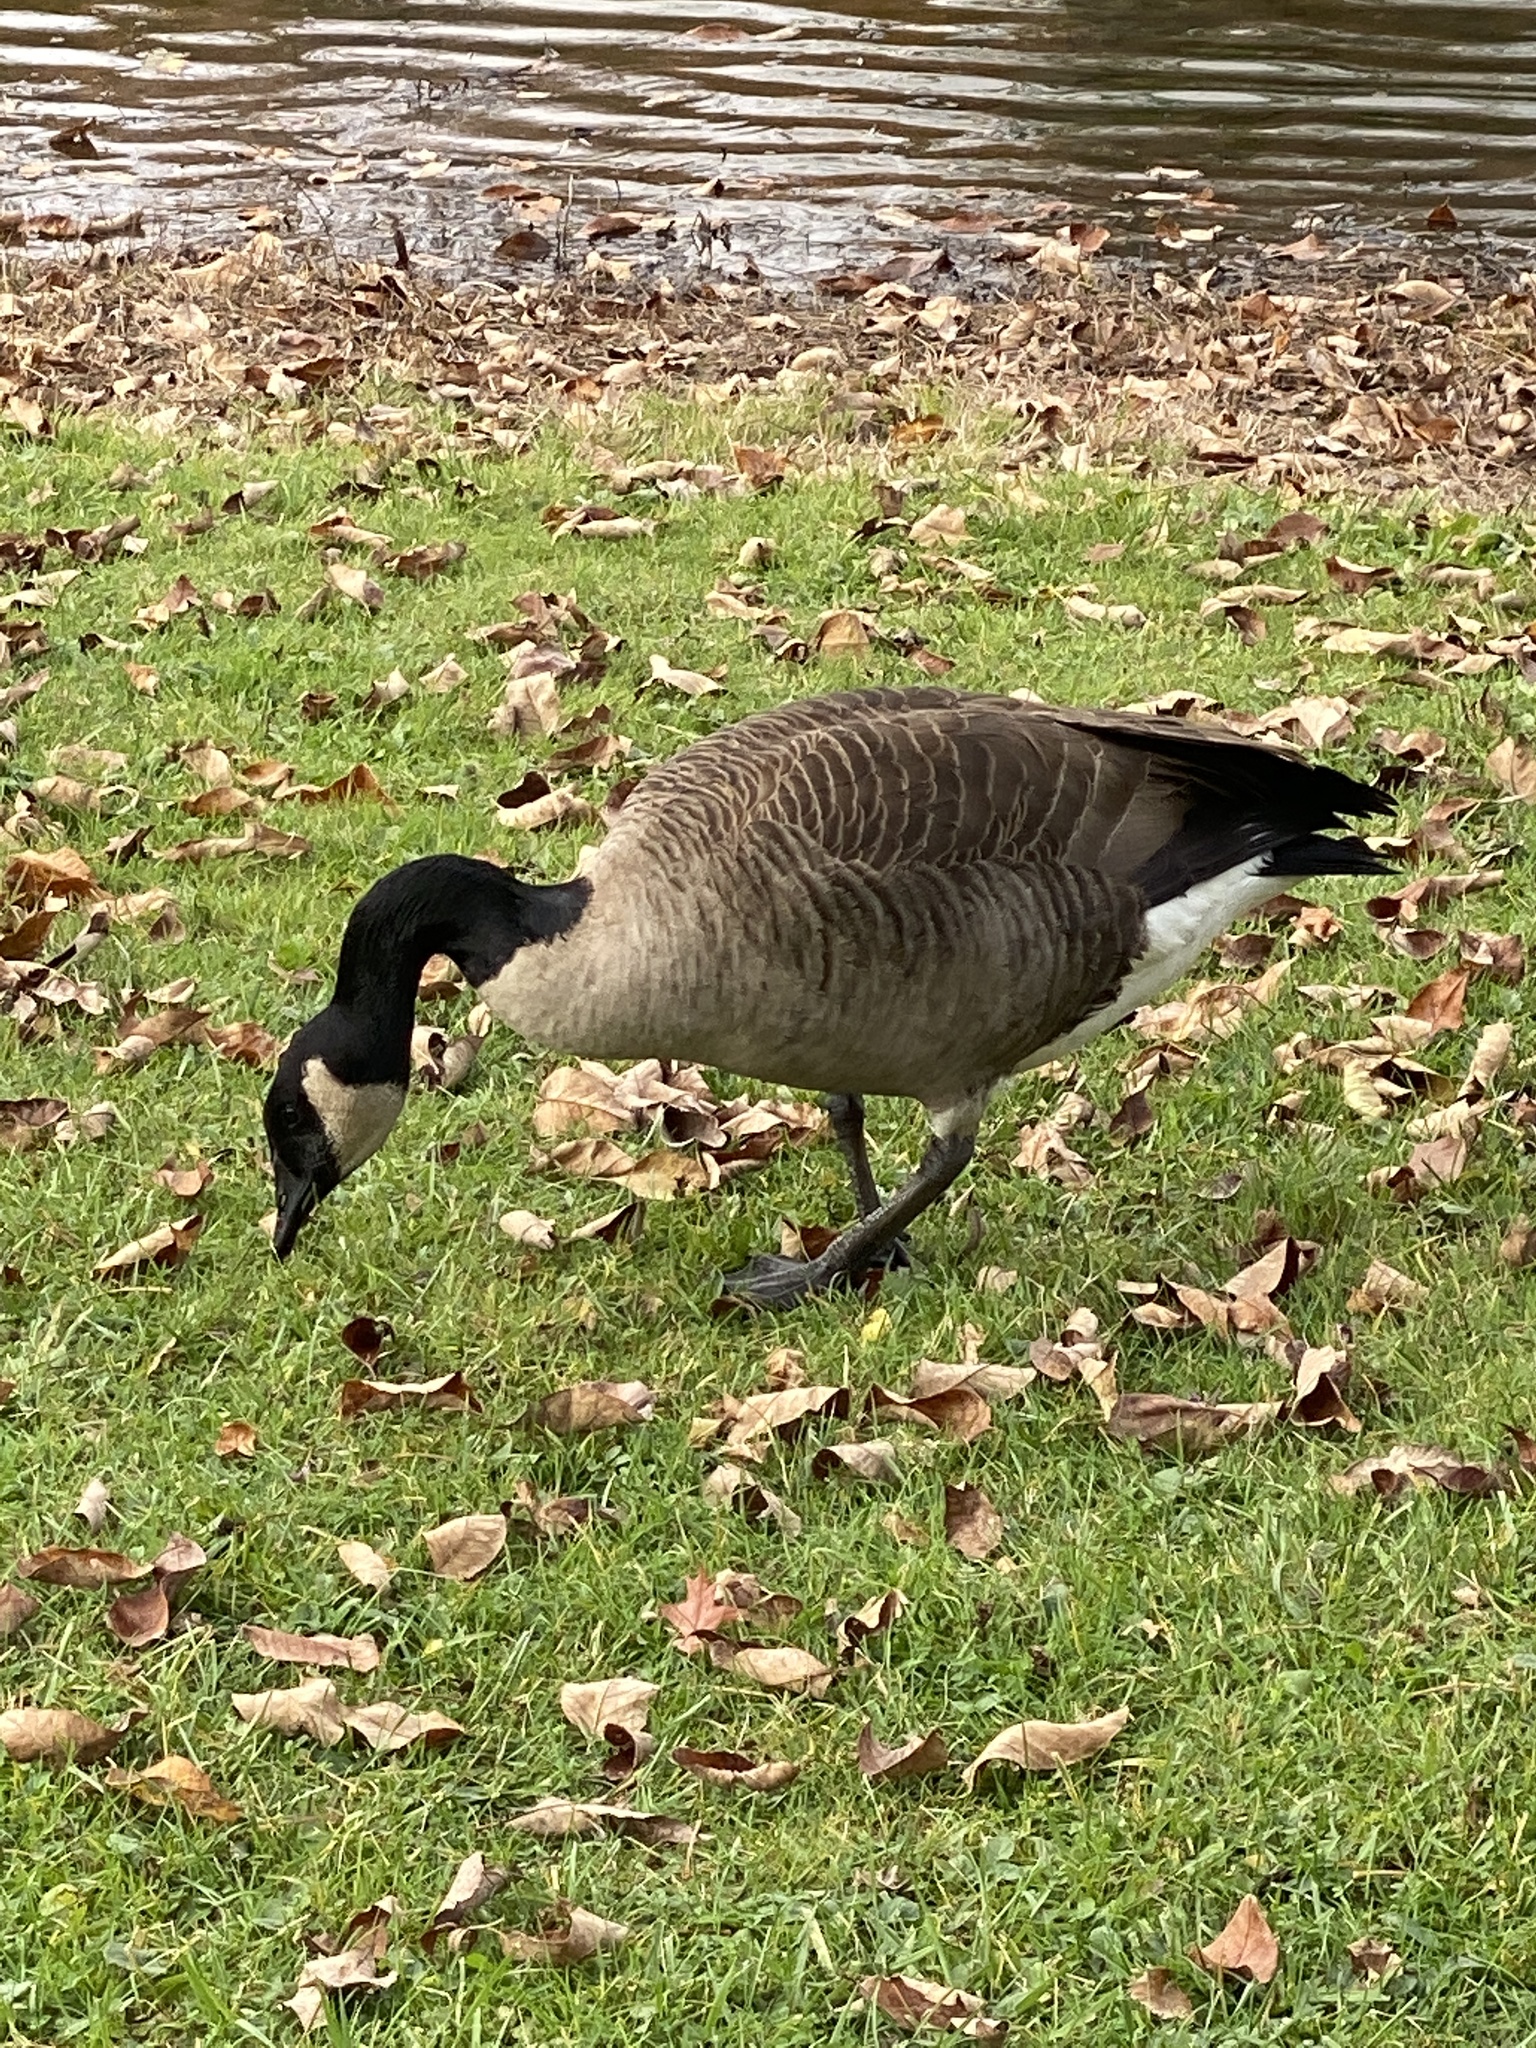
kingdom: Animalia
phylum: Chordata
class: Aves
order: Anseriformes
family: Anatidae
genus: Branta
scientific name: Branta canadensis
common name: Canada goose
